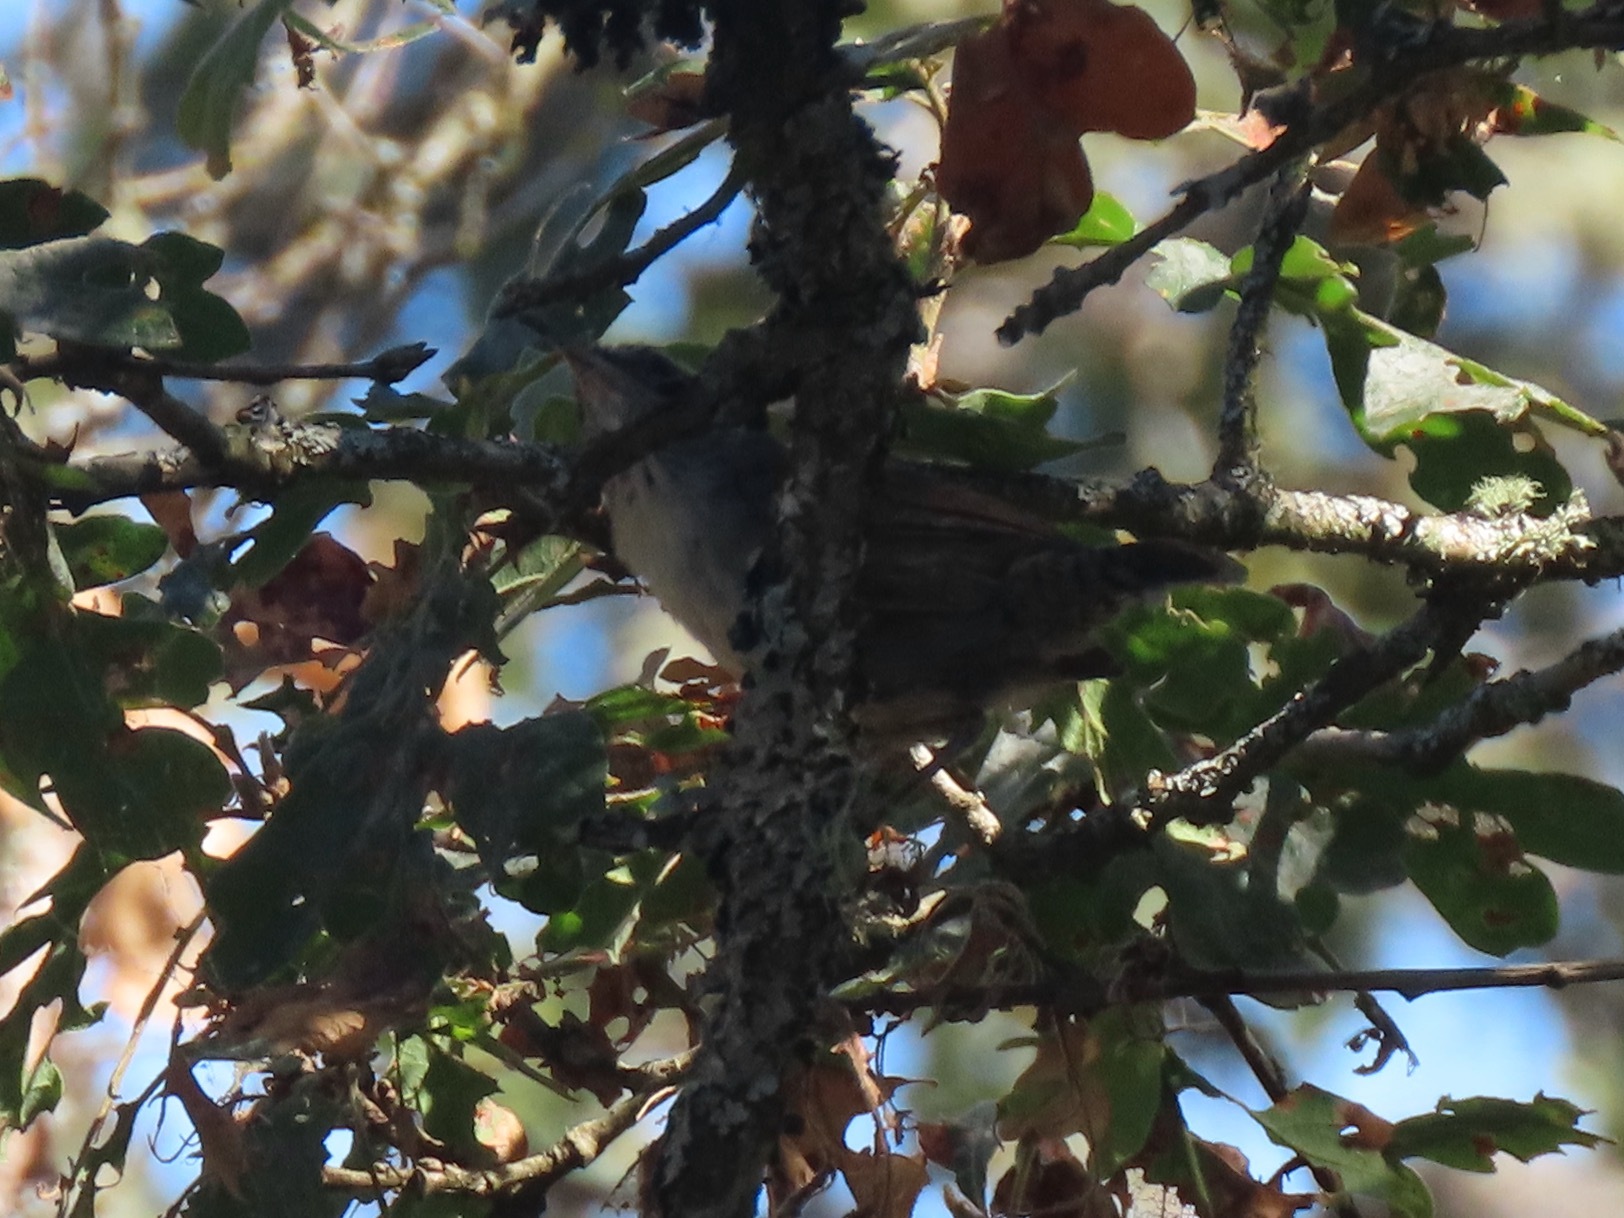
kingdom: Animalia
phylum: Chordata
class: Aves
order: Passeriformes
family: Troglodytidae
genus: Thryomanes
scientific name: Thryomanes bewickii
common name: Bewick's wren
